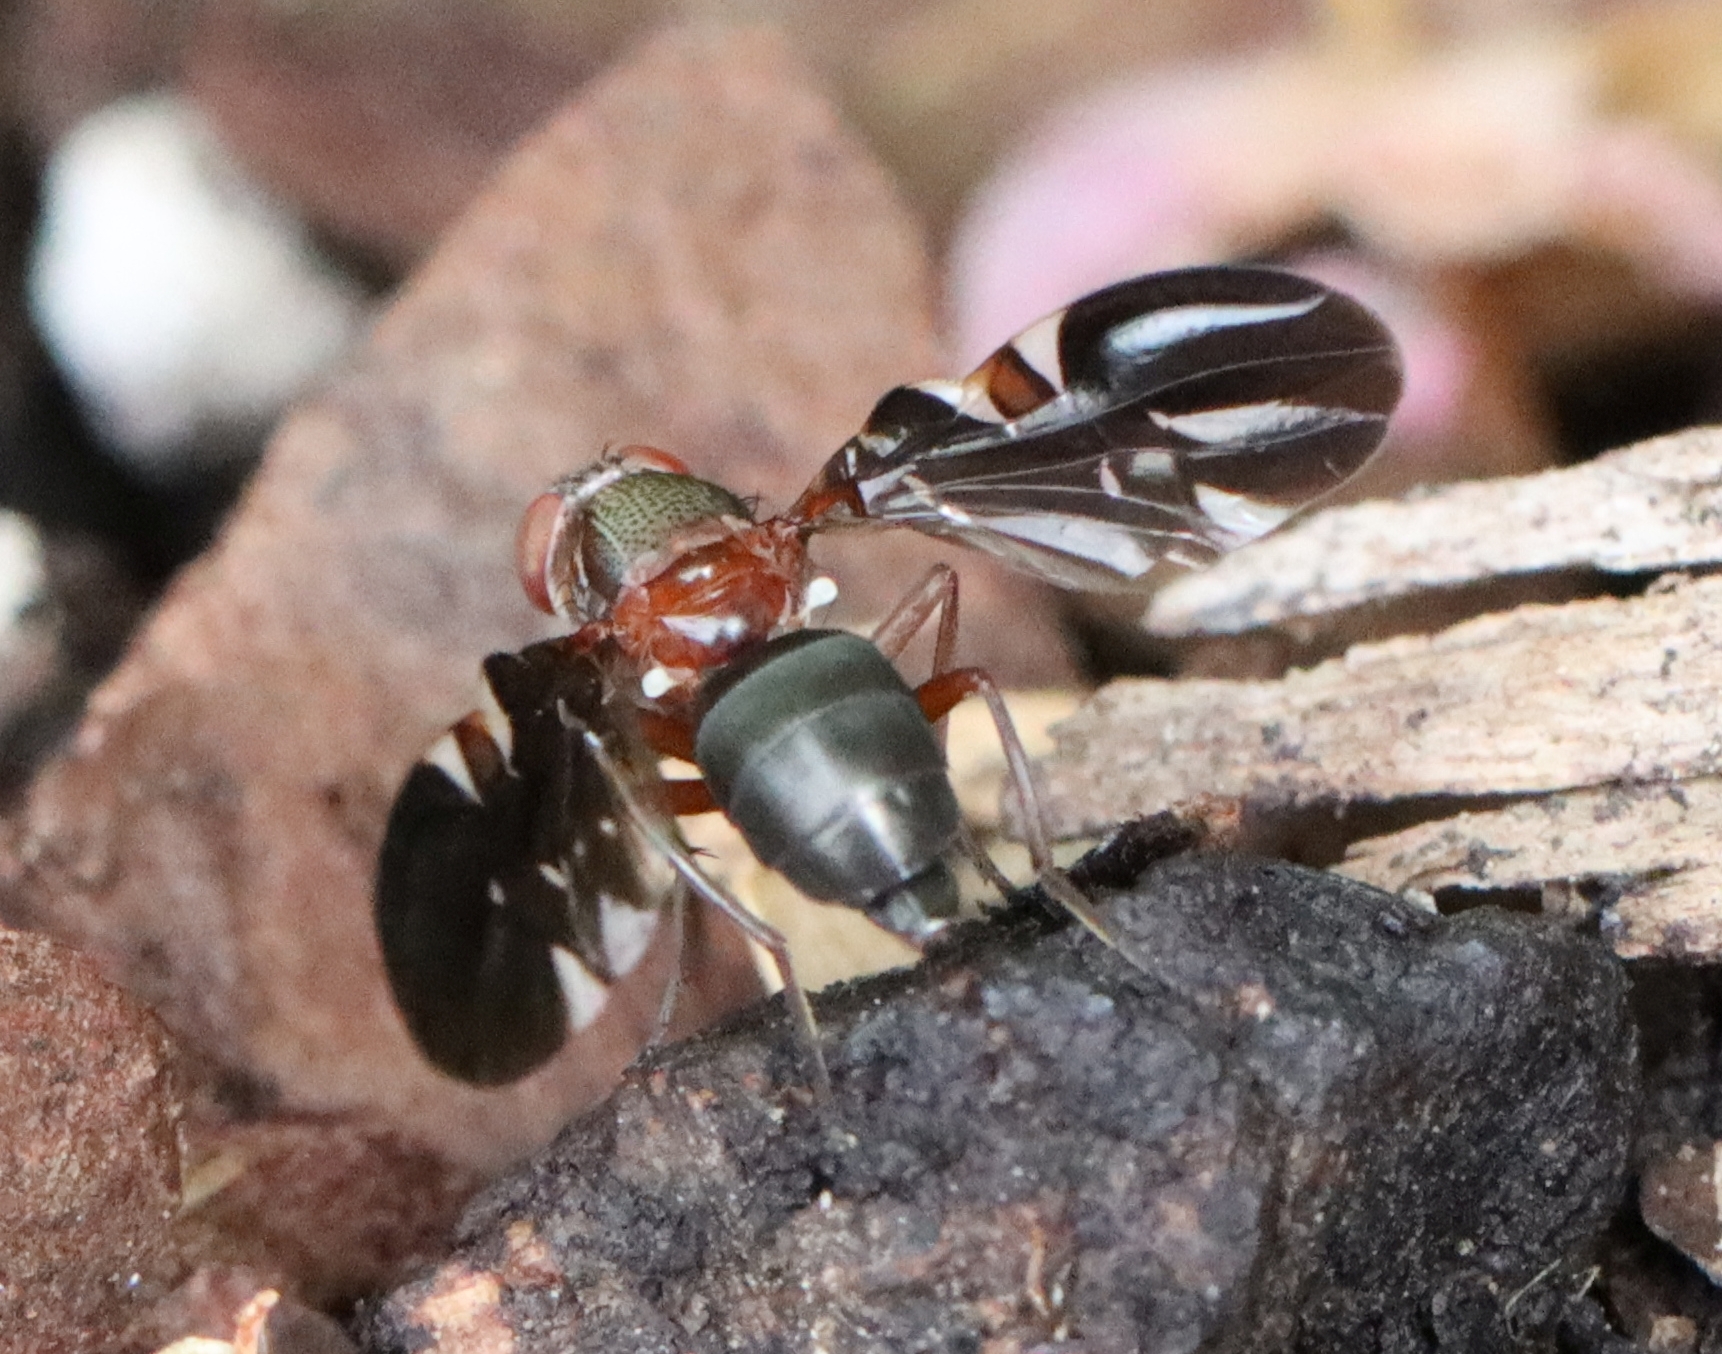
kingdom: Animalia
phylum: Arthropoda
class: Insecta
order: Diptera
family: Ulidiidae
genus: Delphinia
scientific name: Delphinia picta
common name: Common picture-winged fly
